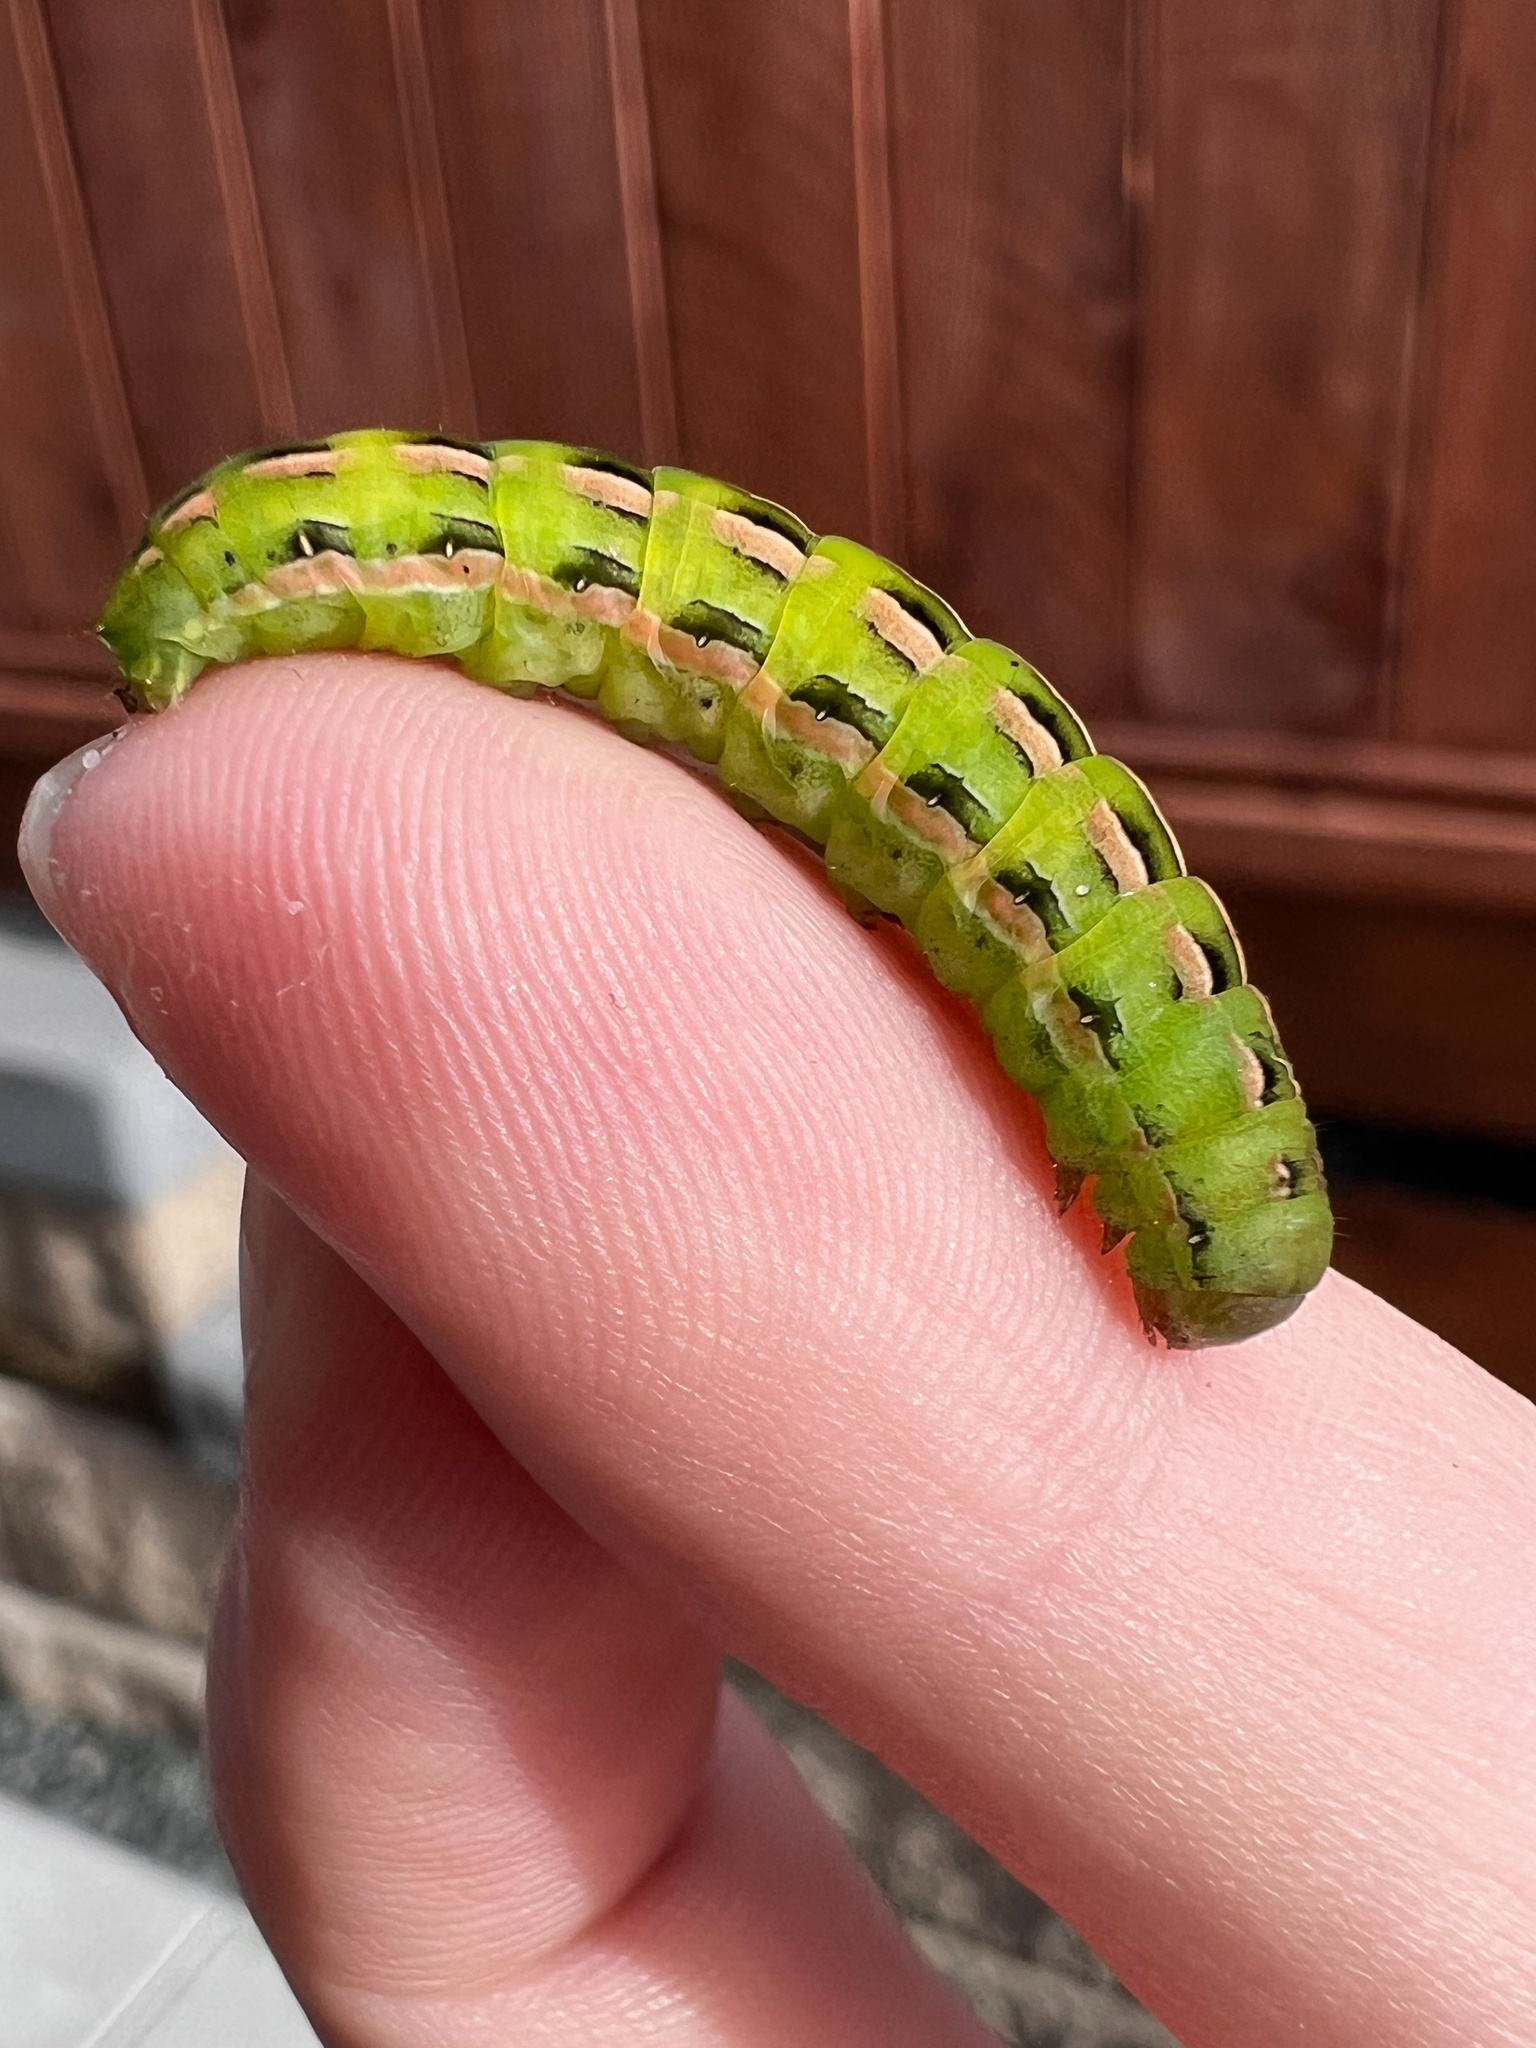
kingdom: Animalia
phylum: Arthropoda
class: Insecta
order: Lepidoptera
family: Noctuidae
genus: Dargida
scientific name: Dargida procinctus
